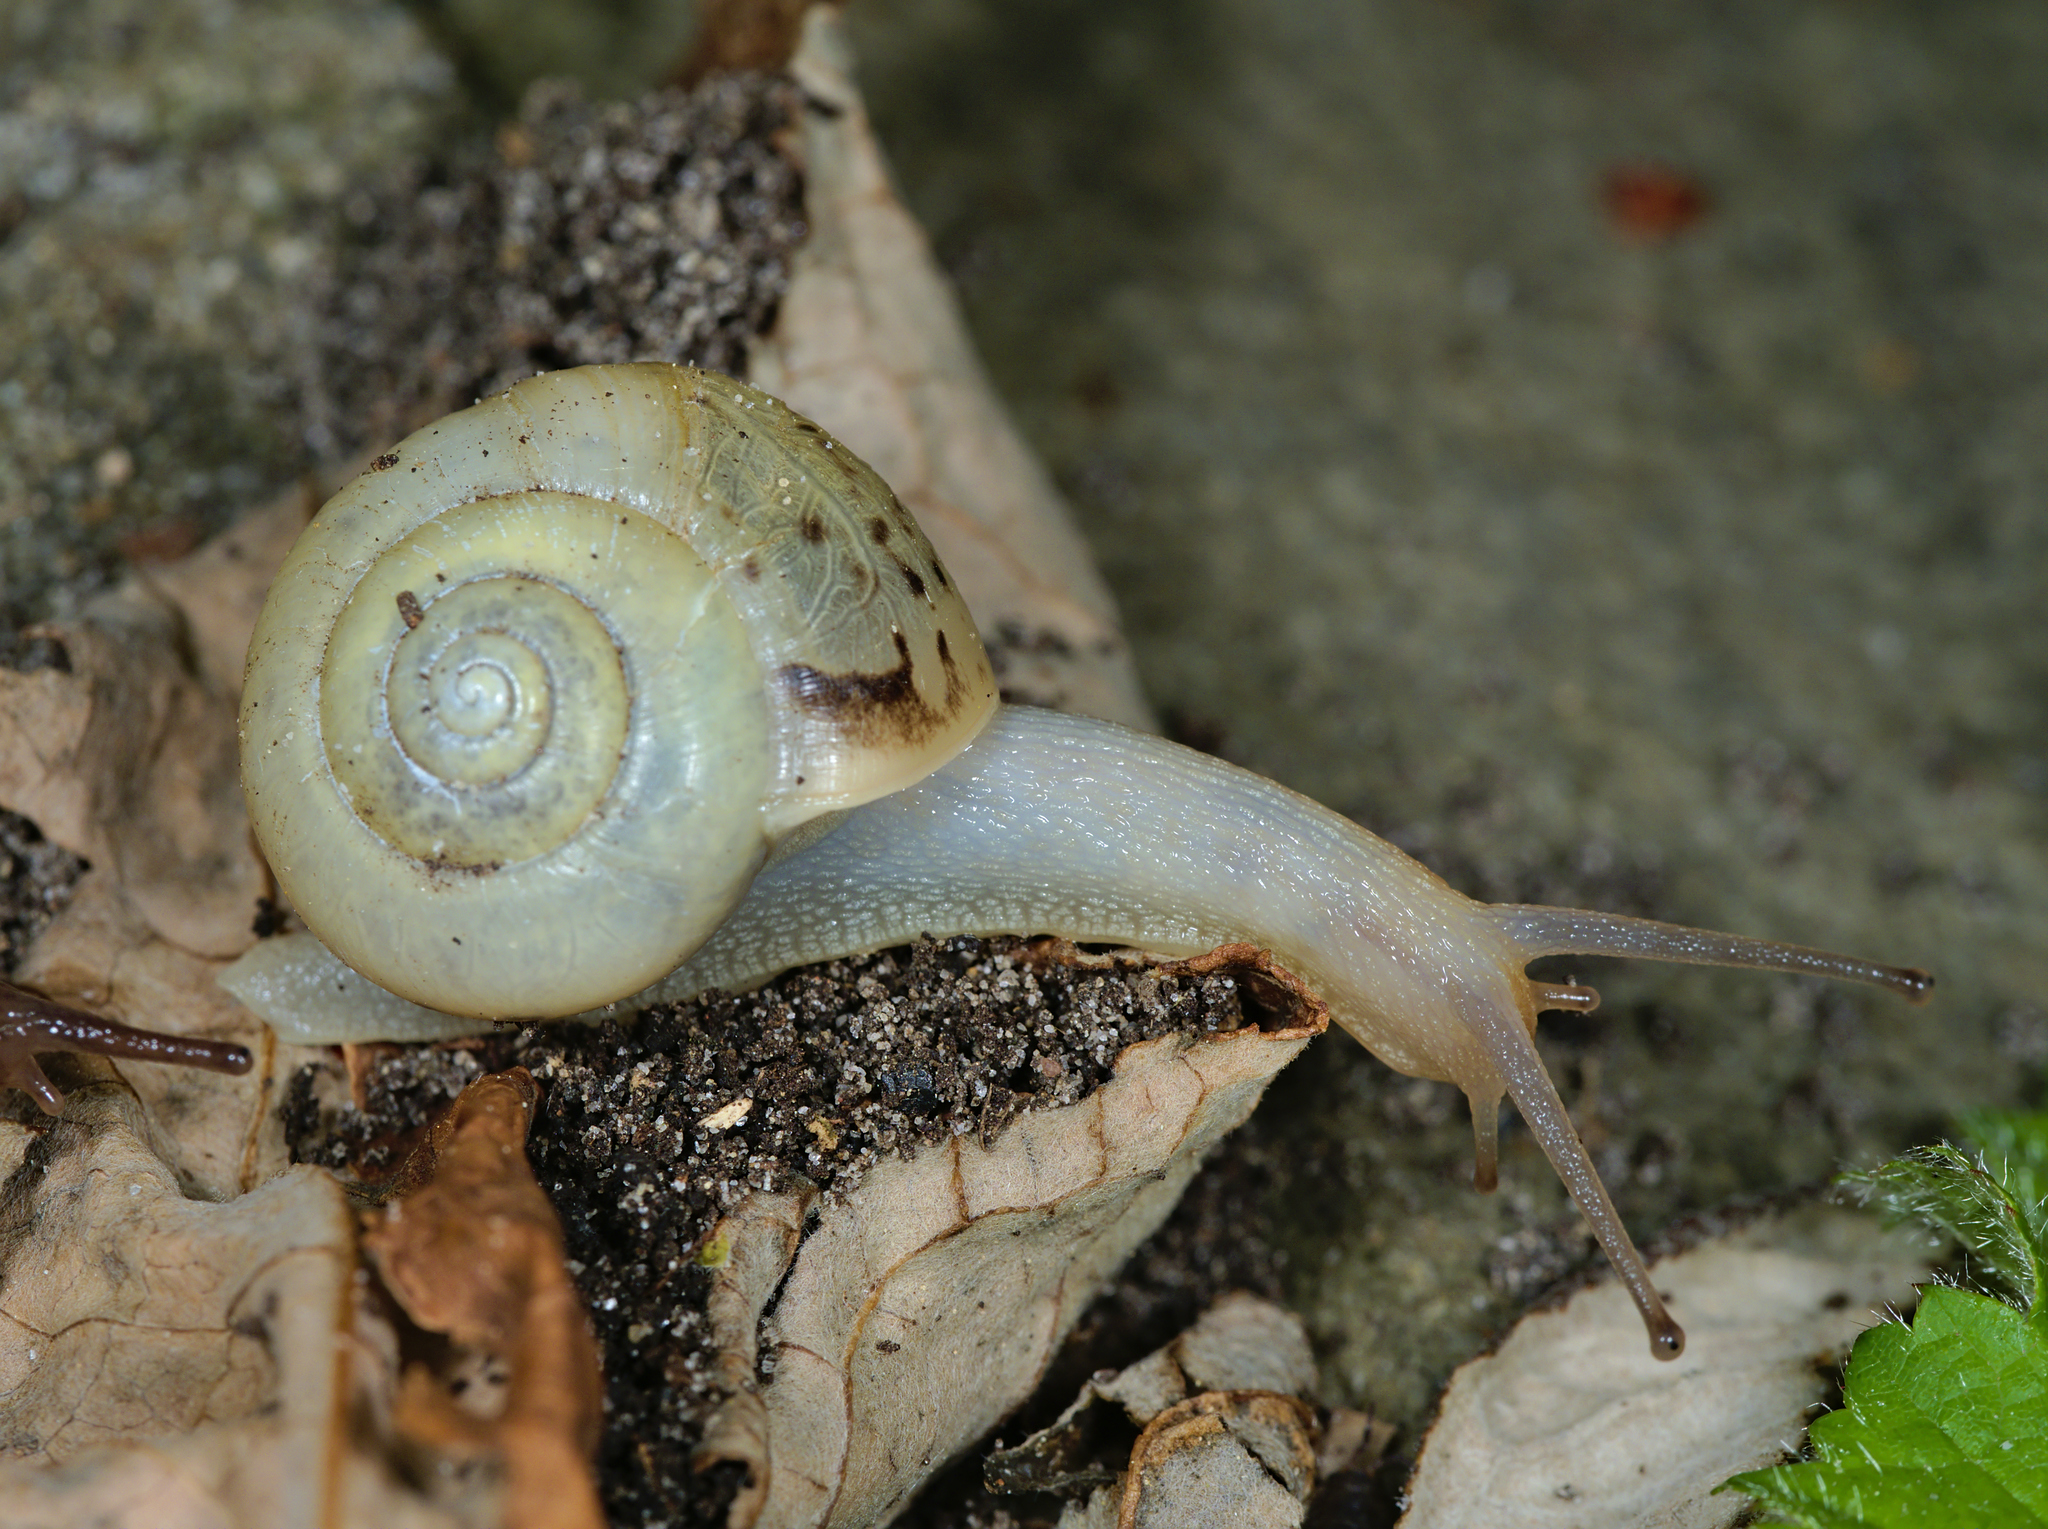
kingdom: Animalia
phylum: Mollusca
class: Gastropoda
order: Stylommatophora
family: Camaenidae
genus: Fruticicola
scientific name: Fruticicola fruticum
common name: Bush snail
